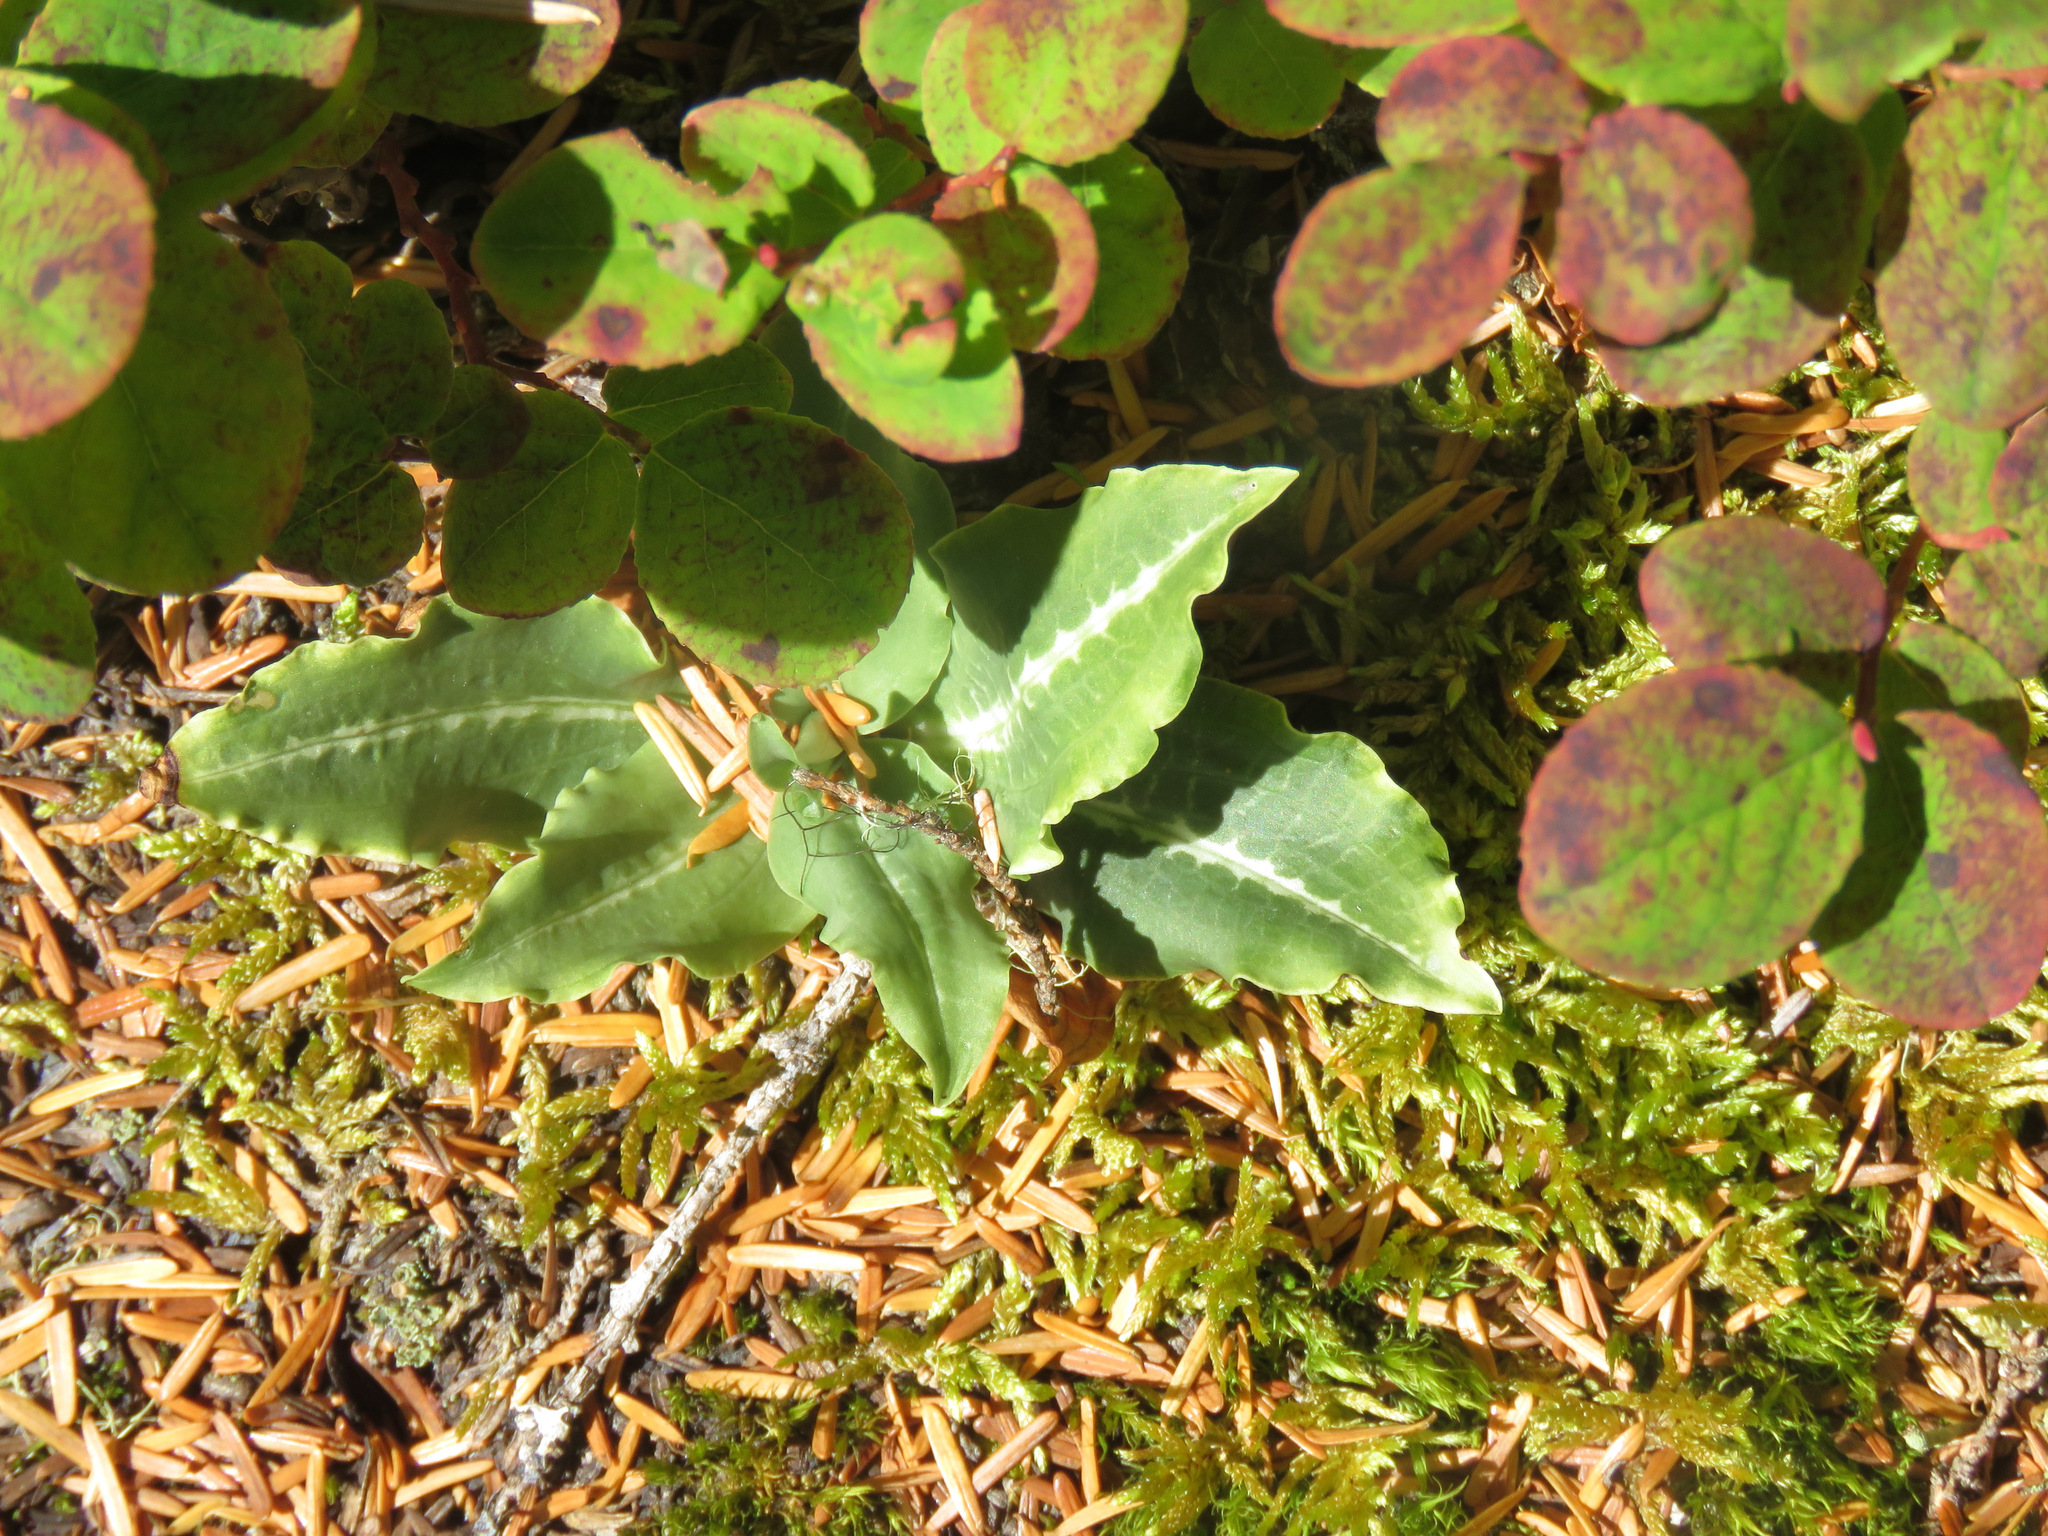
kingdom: Plantae
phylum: Tracheophyta
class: Liliopsida
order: Asparagales
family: Orchidaceae
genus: Goodyera
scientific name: Goodyera oblongifolia
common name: Giant rattlesnake-plantain
